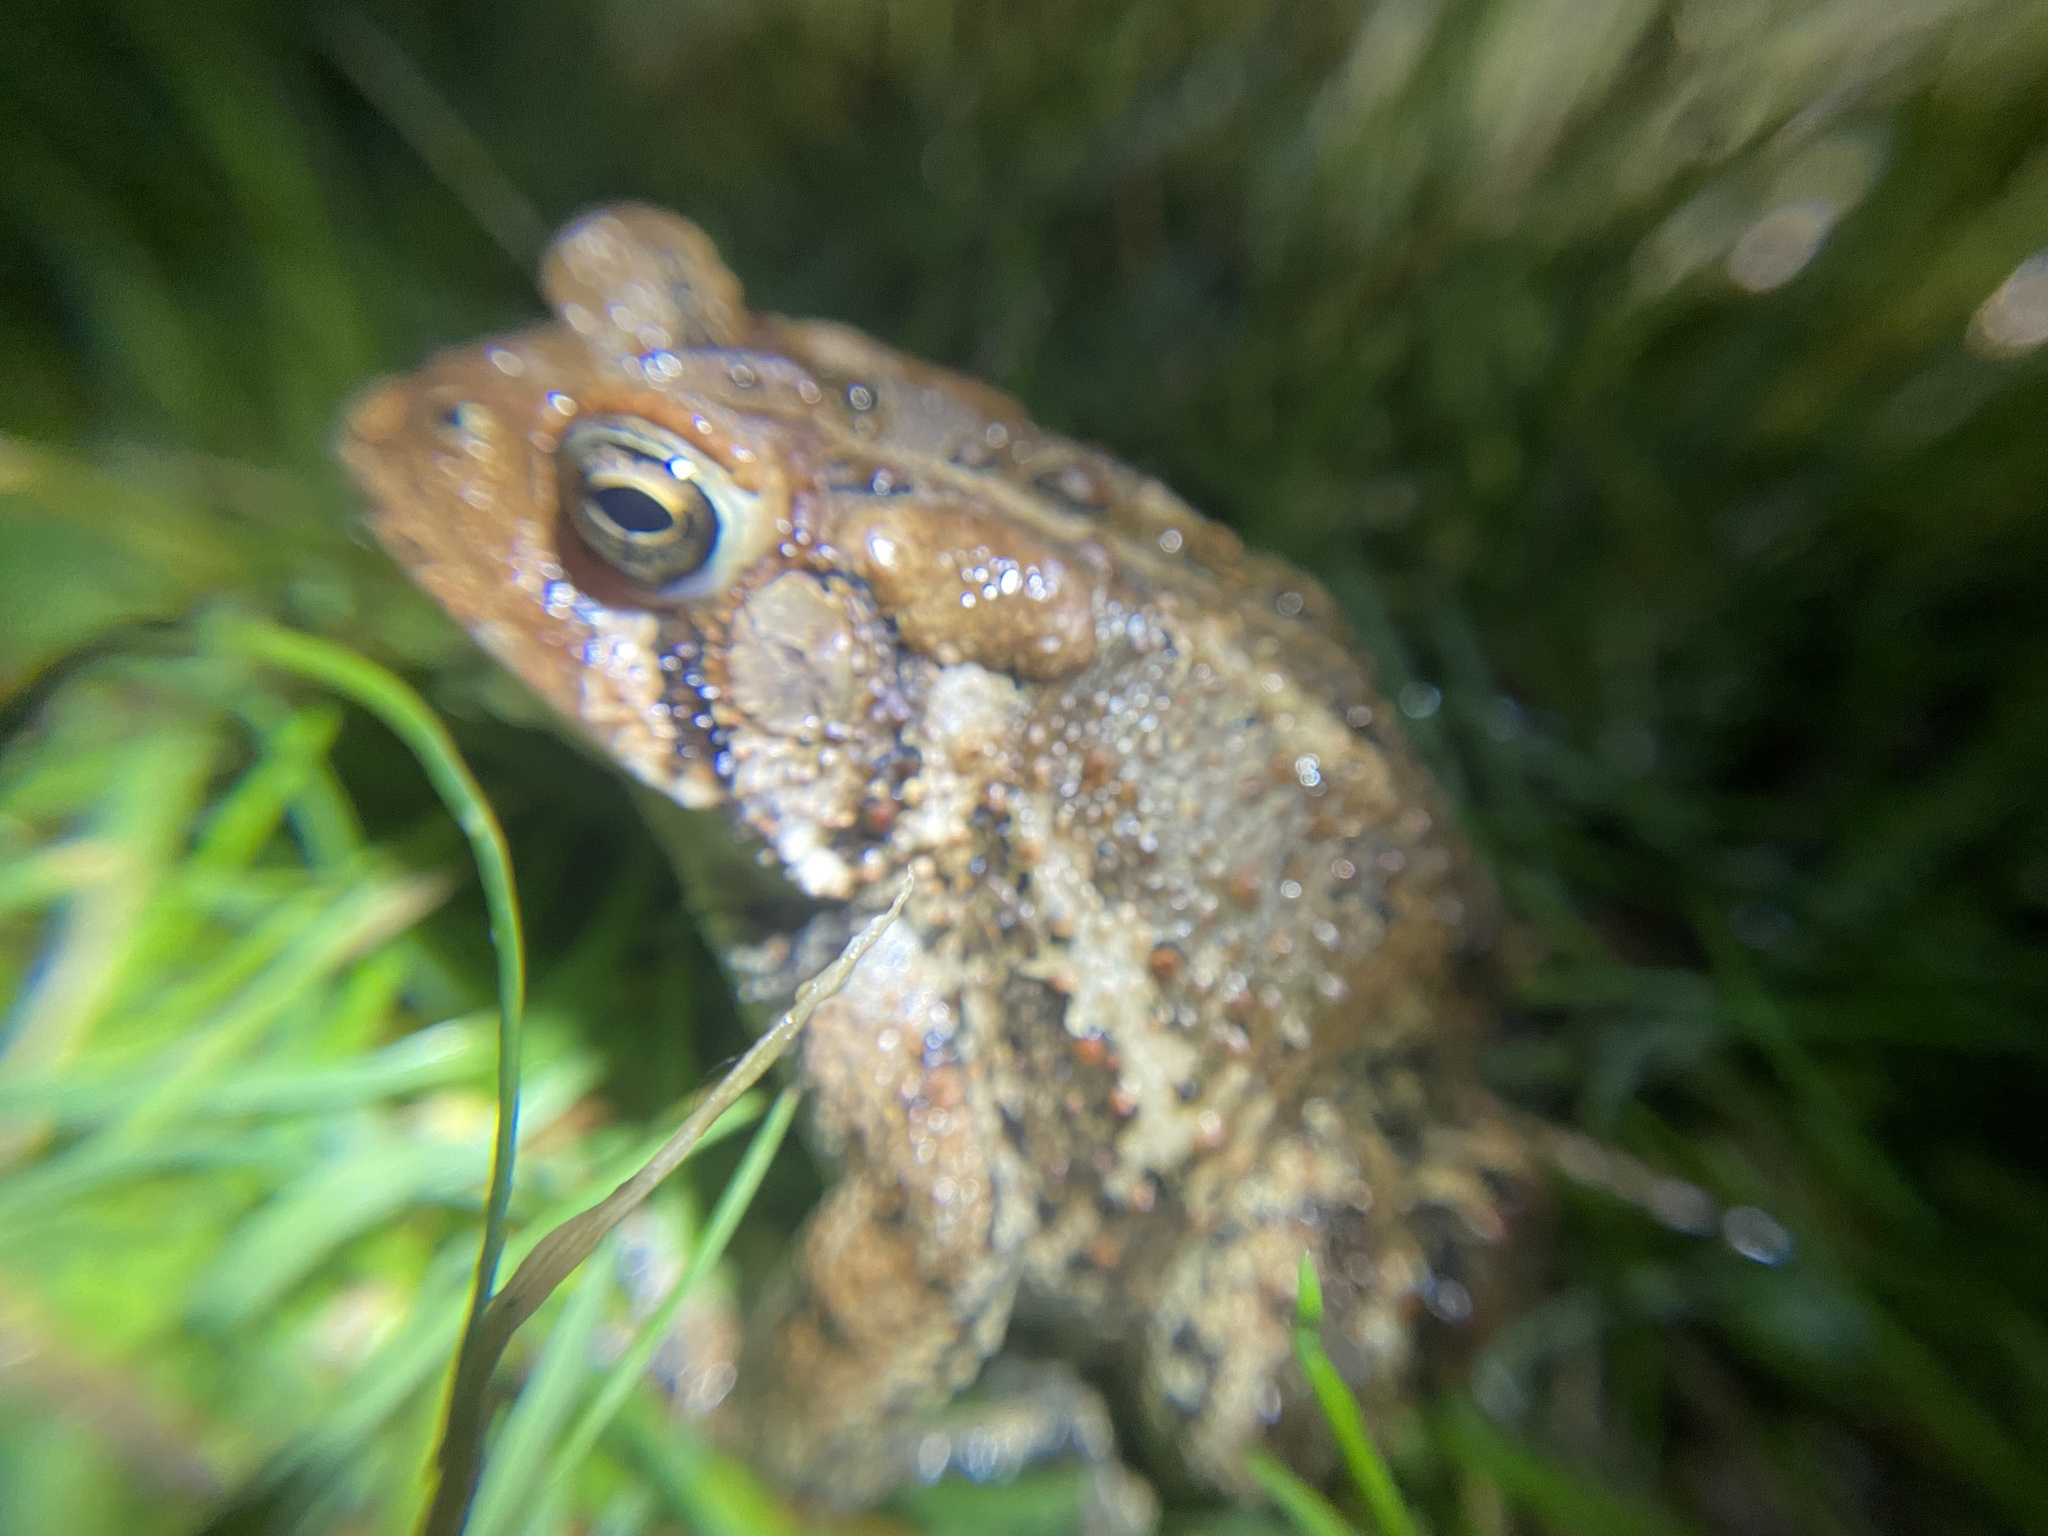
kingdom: Animalia
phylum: Chordata
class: Amphibia
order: Anura
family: Bufonidae
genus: Anaxyrus
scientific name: Anaxyrus americanus
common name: American toad
